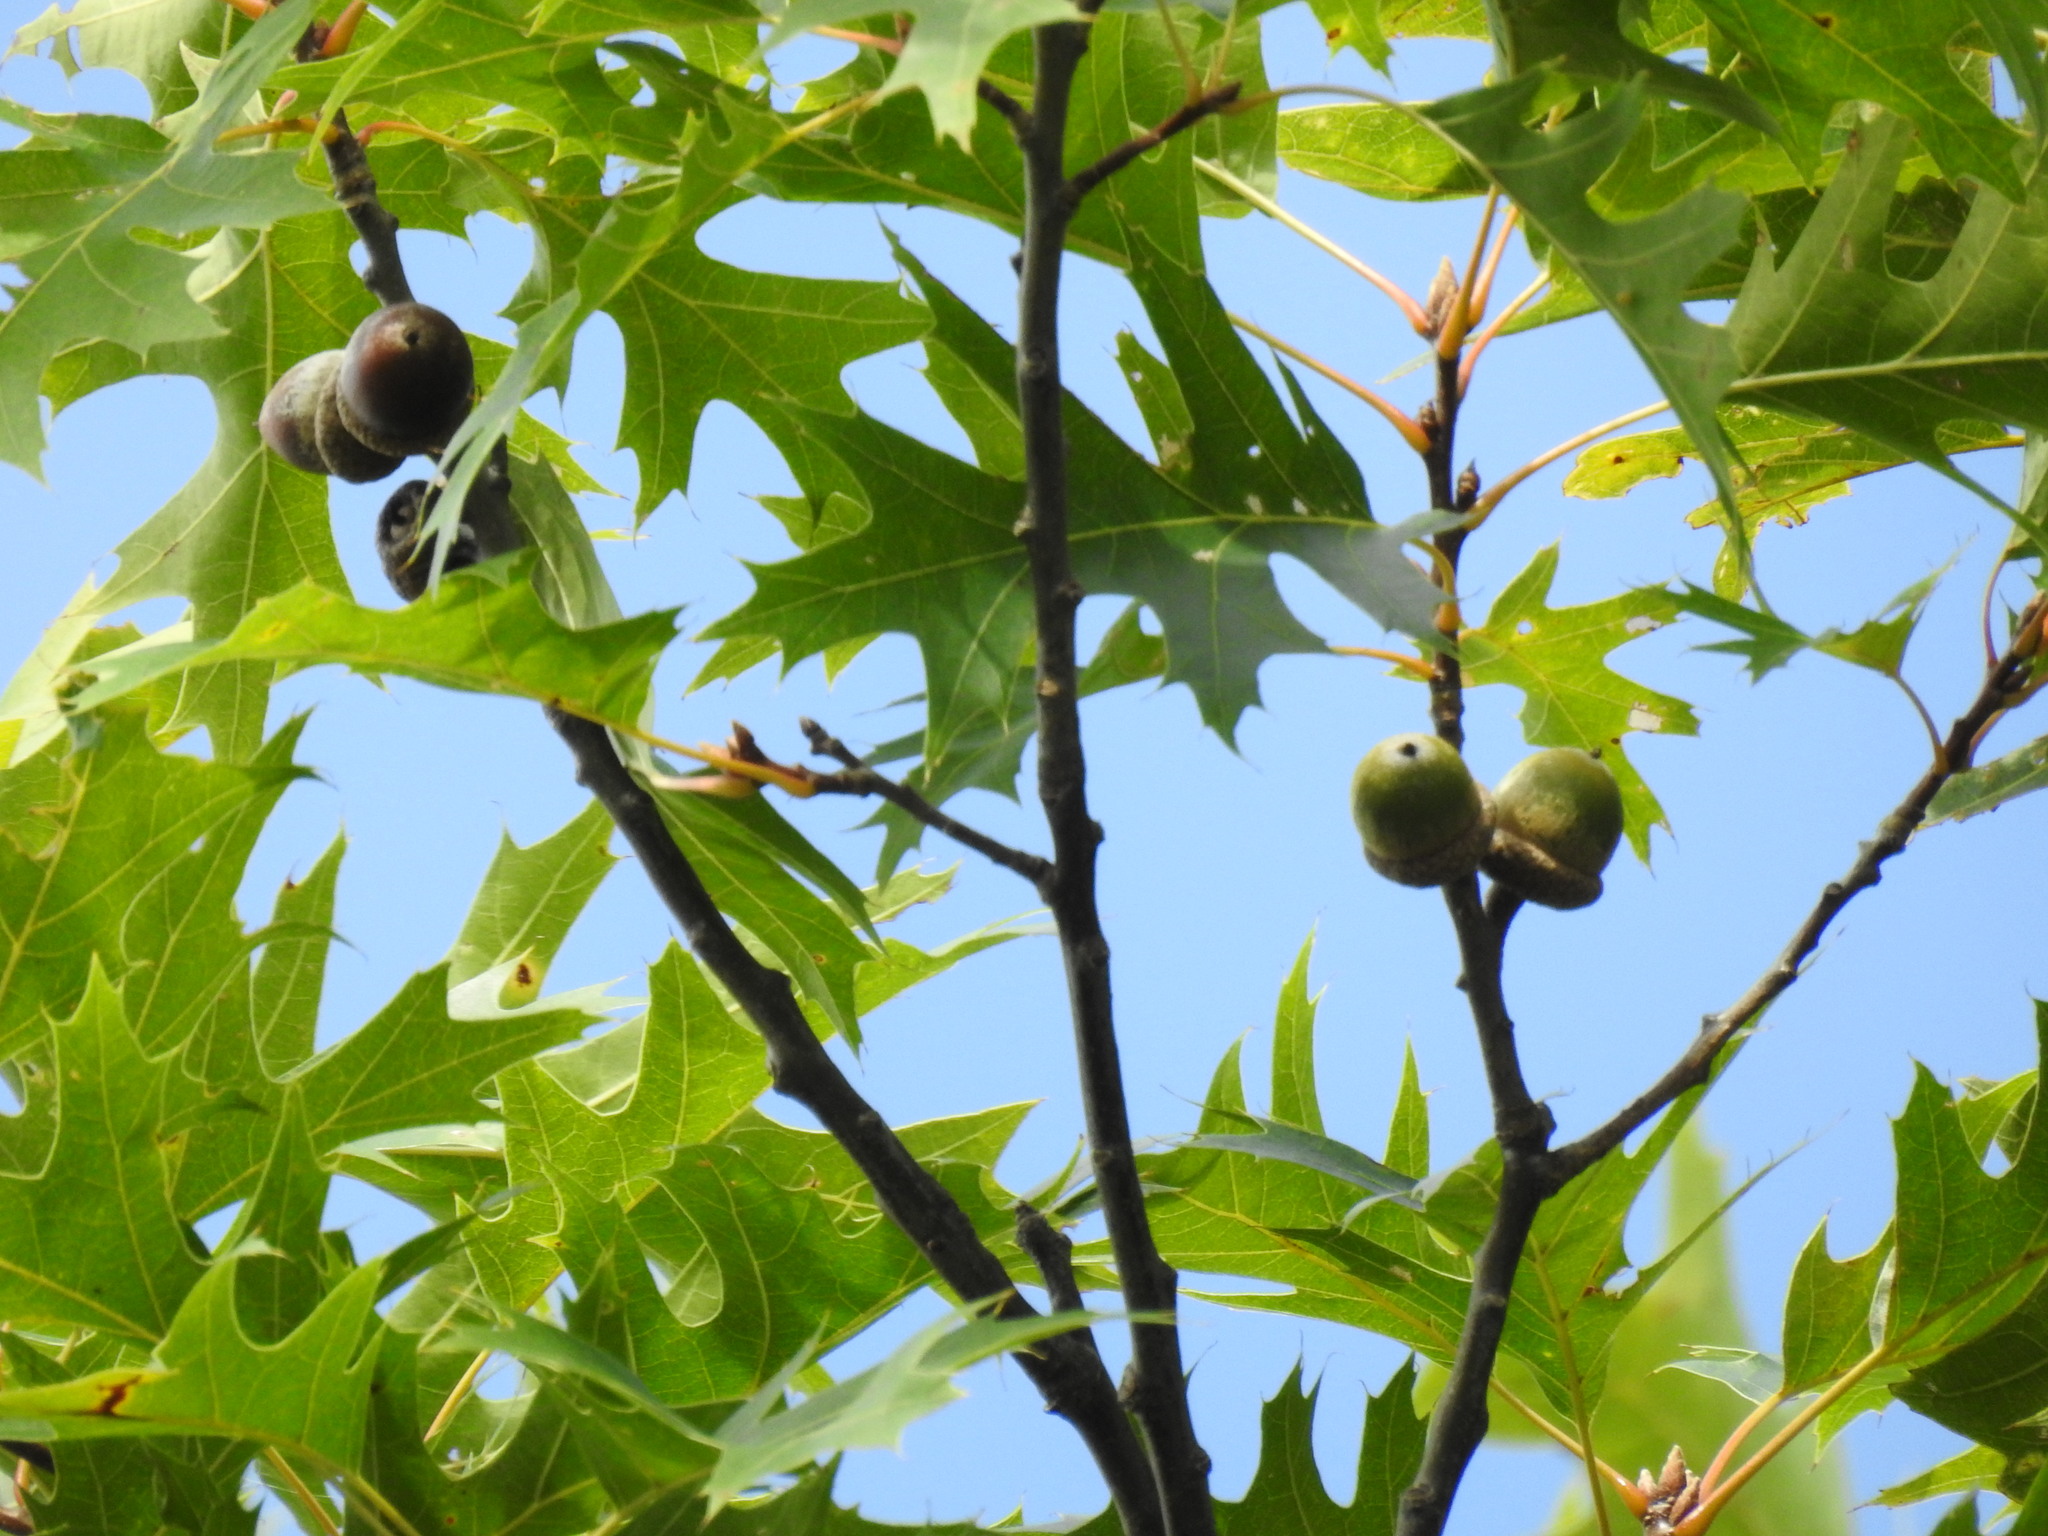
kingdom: Plantae
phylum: Tracheophyta
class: Magnoliopsida
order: Fagales
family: Fagaceae
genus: Quercus
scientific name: Quercus rubra
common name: Red oak
